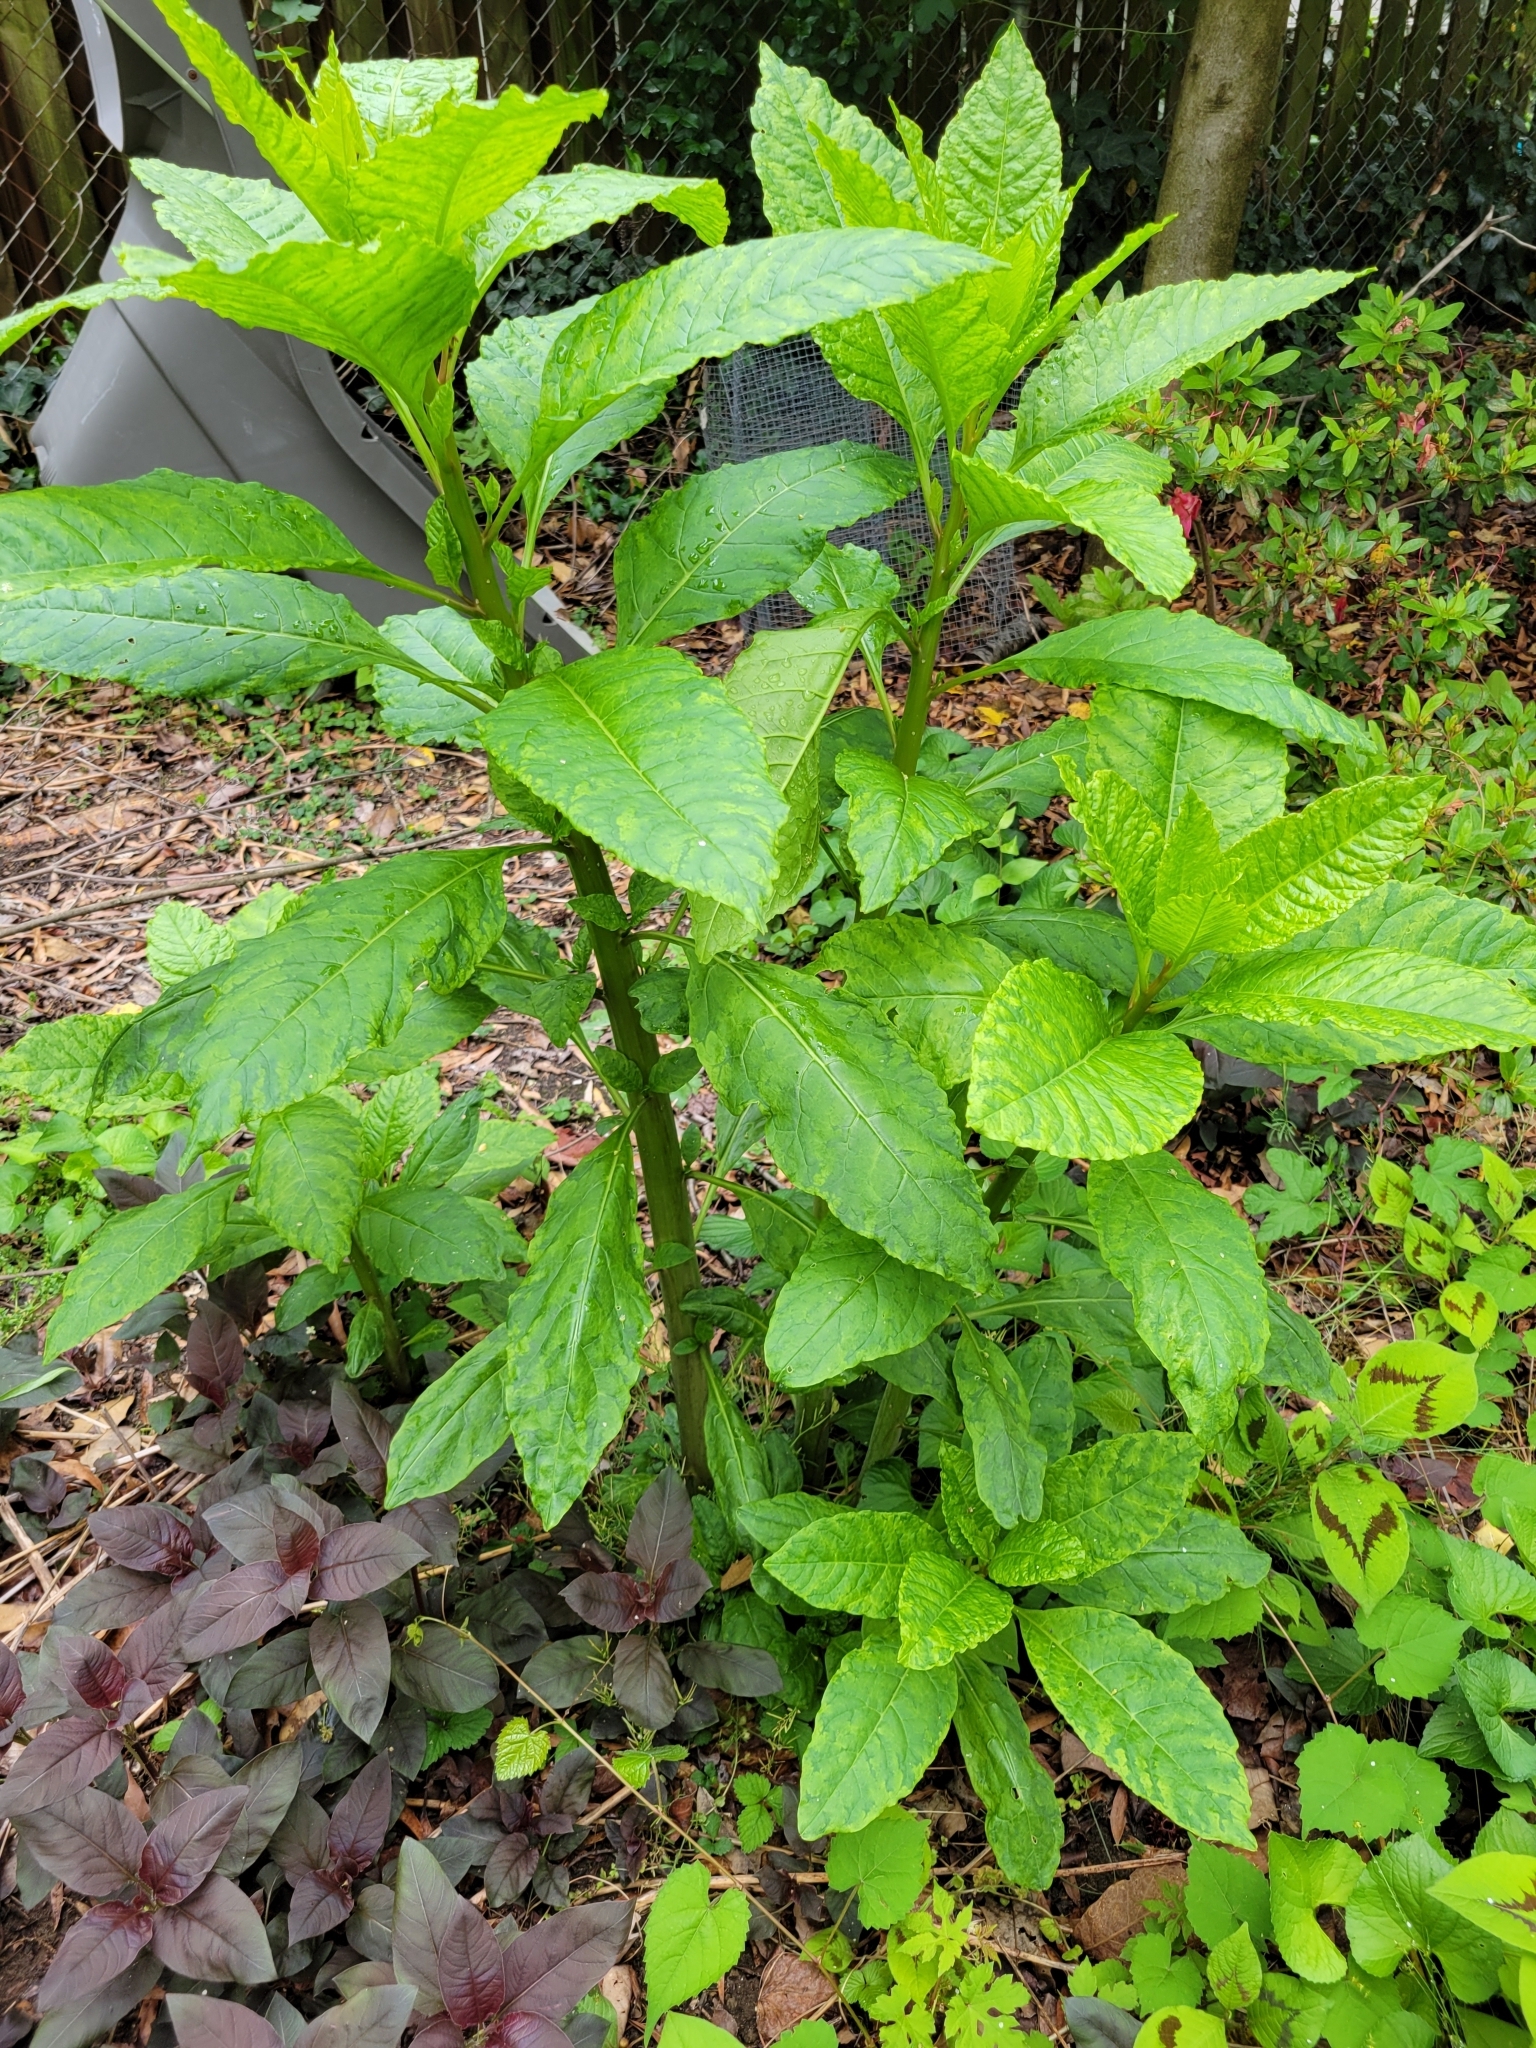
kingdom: Plantae
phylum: Tracheophyta
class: Magnoliopsida
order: Caryophyllales
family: Phytolaccaceae
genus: Phytolacca
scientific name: Phytolacca americana
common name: American pokeweed
